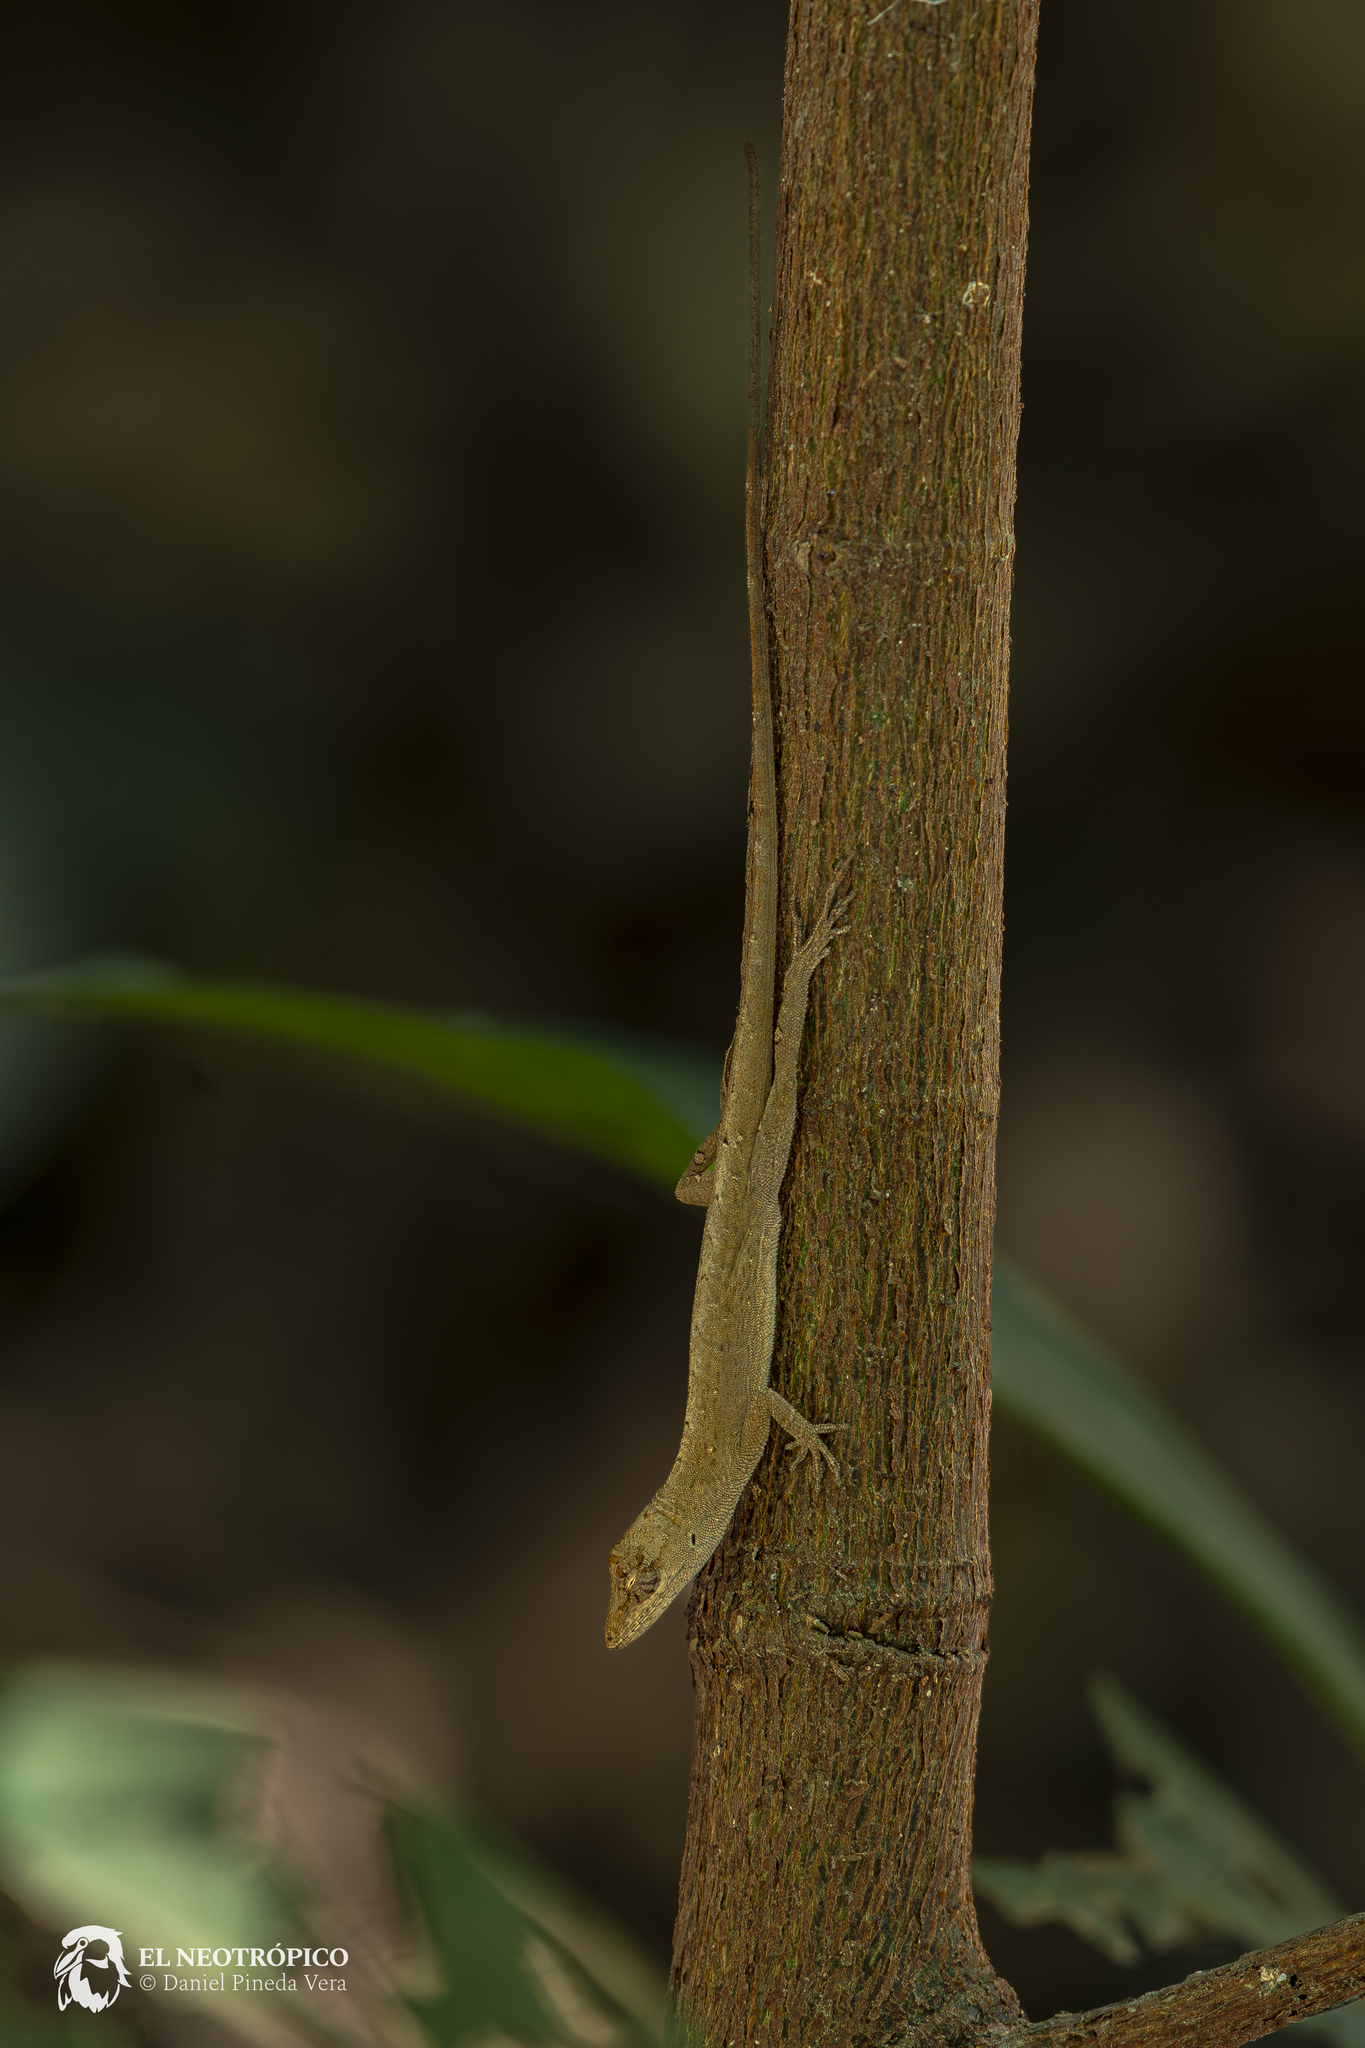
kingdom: Animalia
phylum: Chordata
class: Squamata
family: Dactyloidae
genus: Anolis
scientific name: Anolis unilobatus
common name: Blue-spotted fan anole
